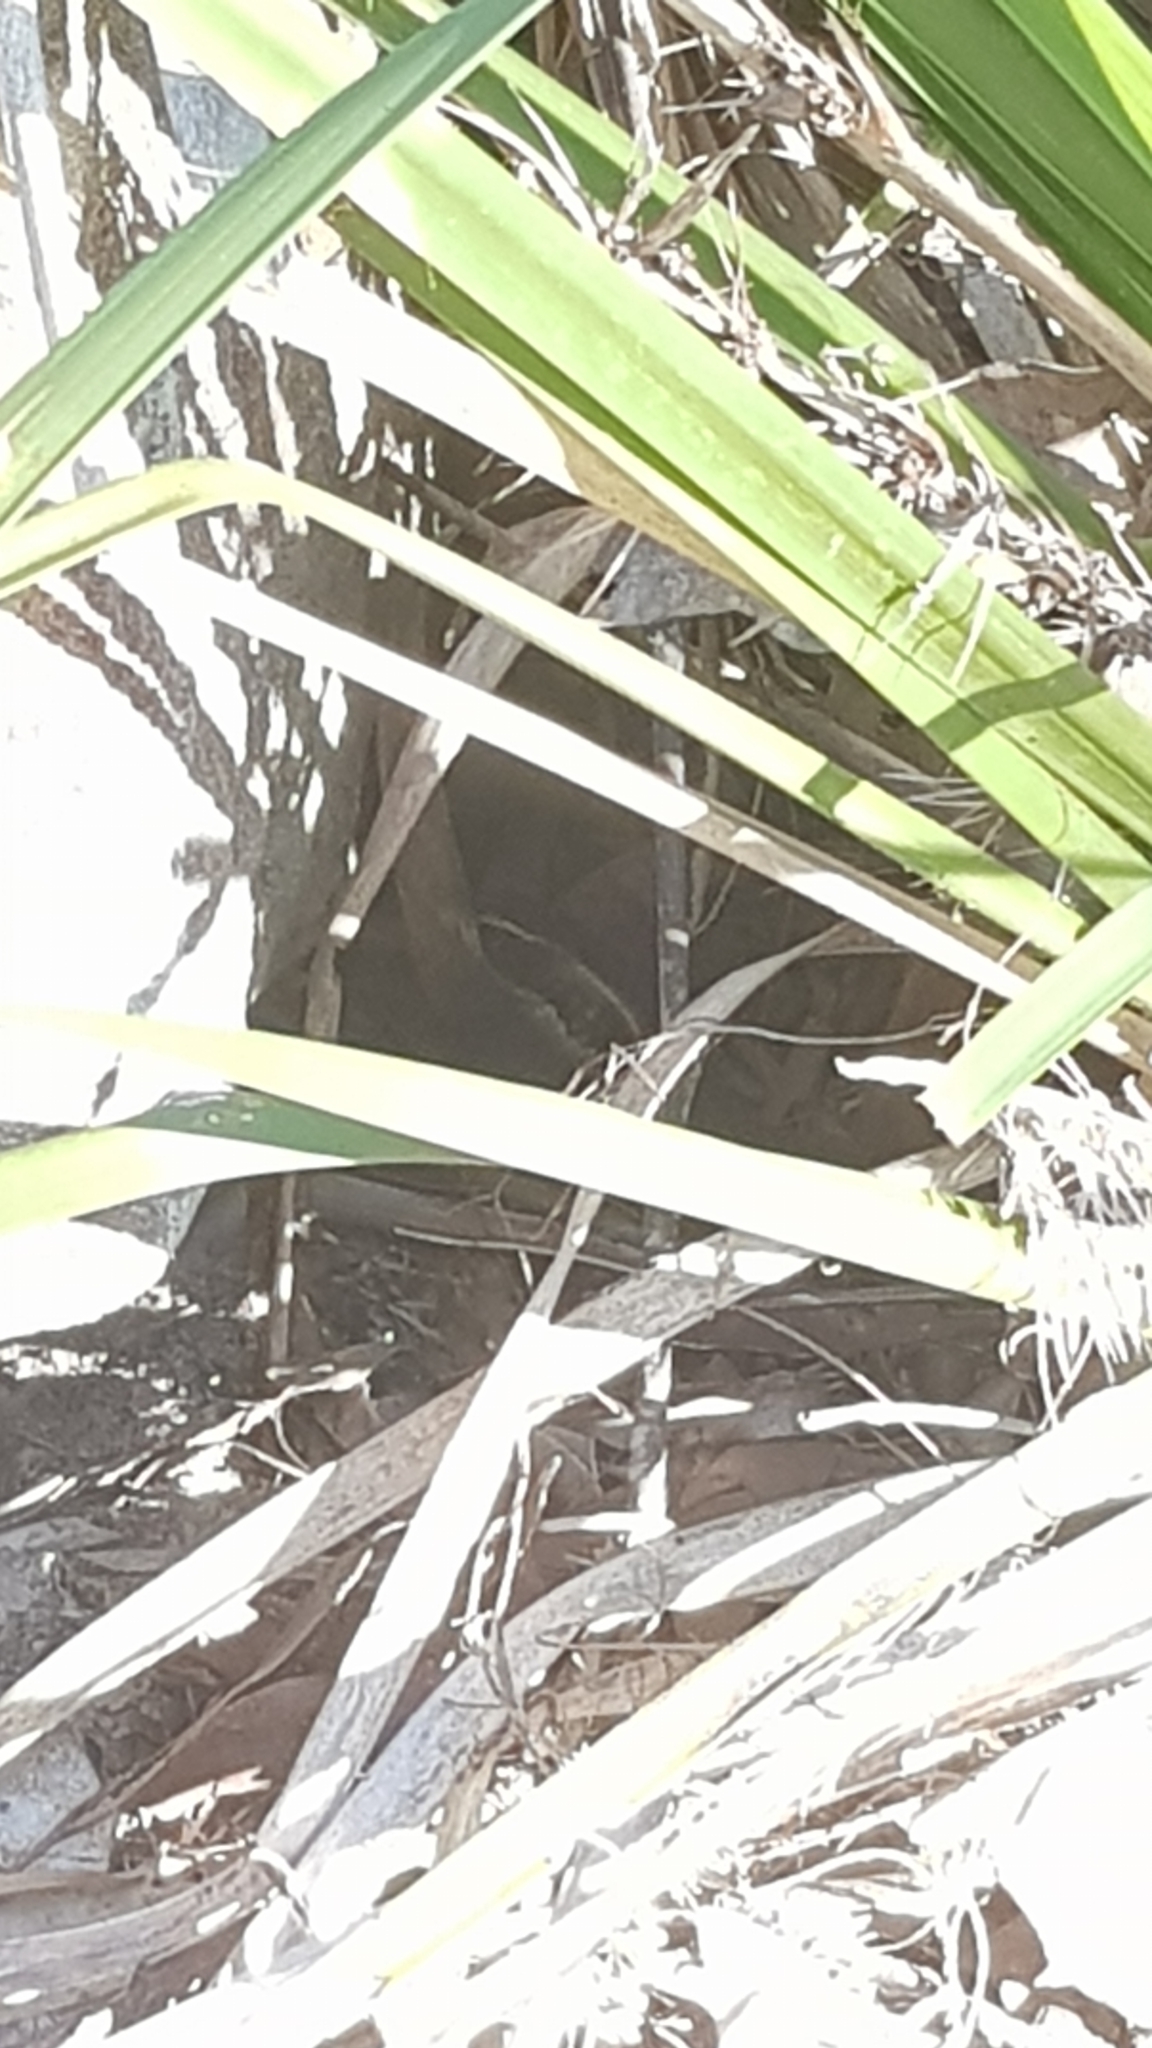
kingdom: Animalia
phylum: Chordata
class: Squamata
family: Scincidae
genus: Eulamprus
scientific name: Eulamprus quoyii
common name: Eastern water skink
